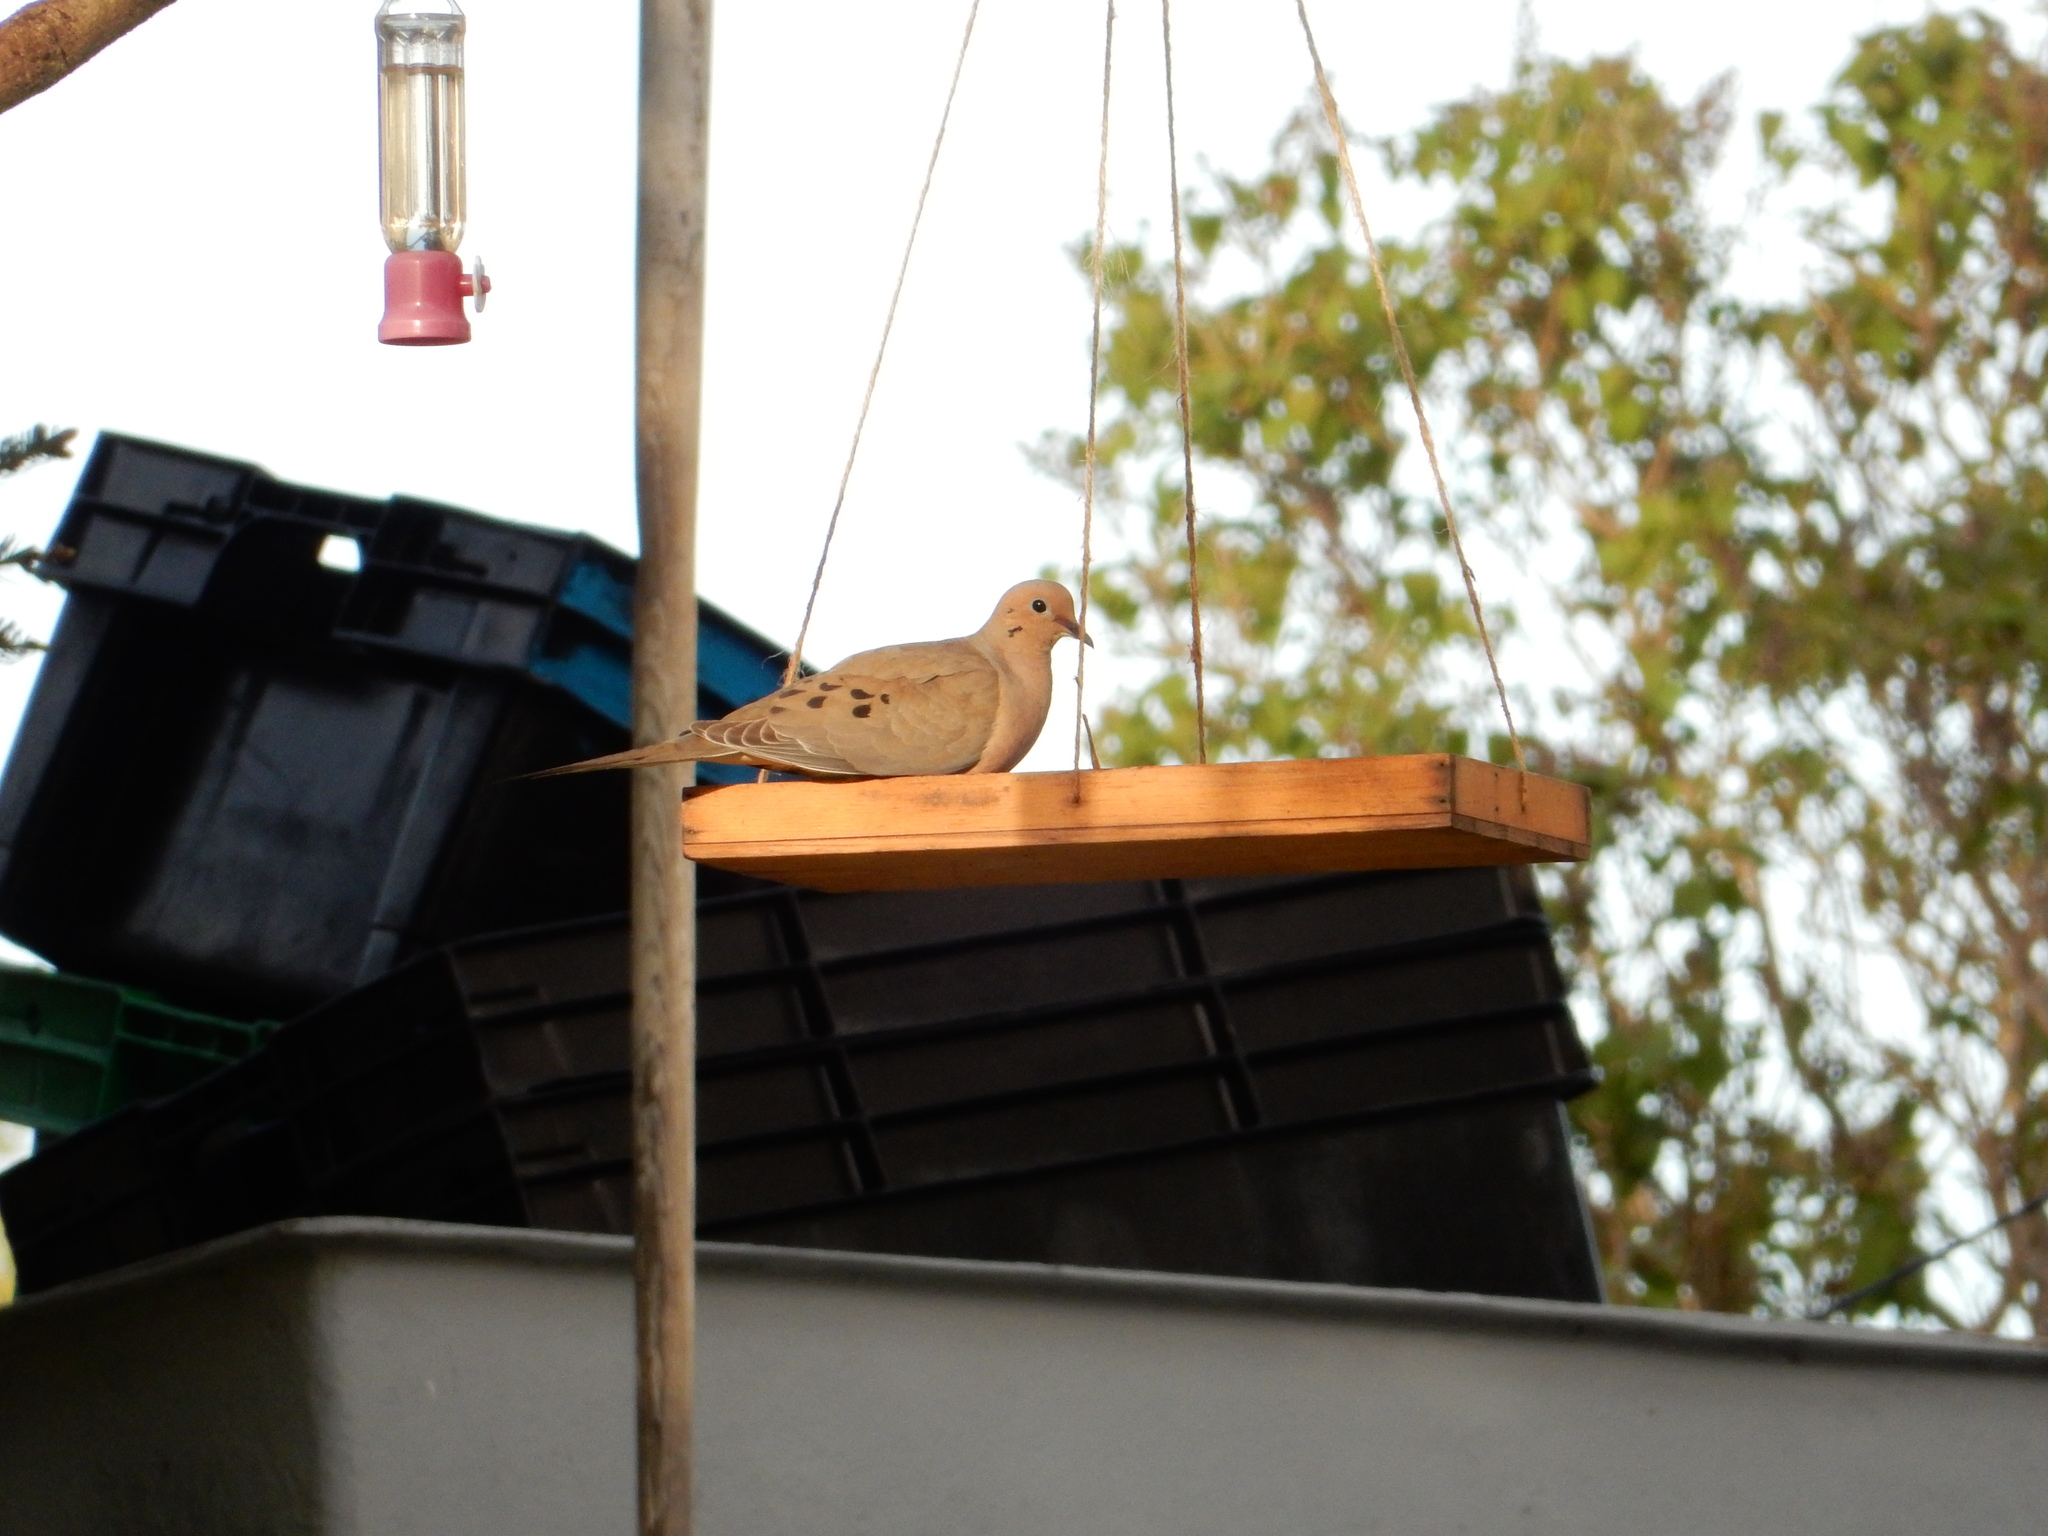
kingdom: Animalia
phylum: Chordata
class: Aves
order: Columbiformes
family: Columbidae
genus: Zenaida
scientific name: Zenaida macroura
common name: Mourning dove
